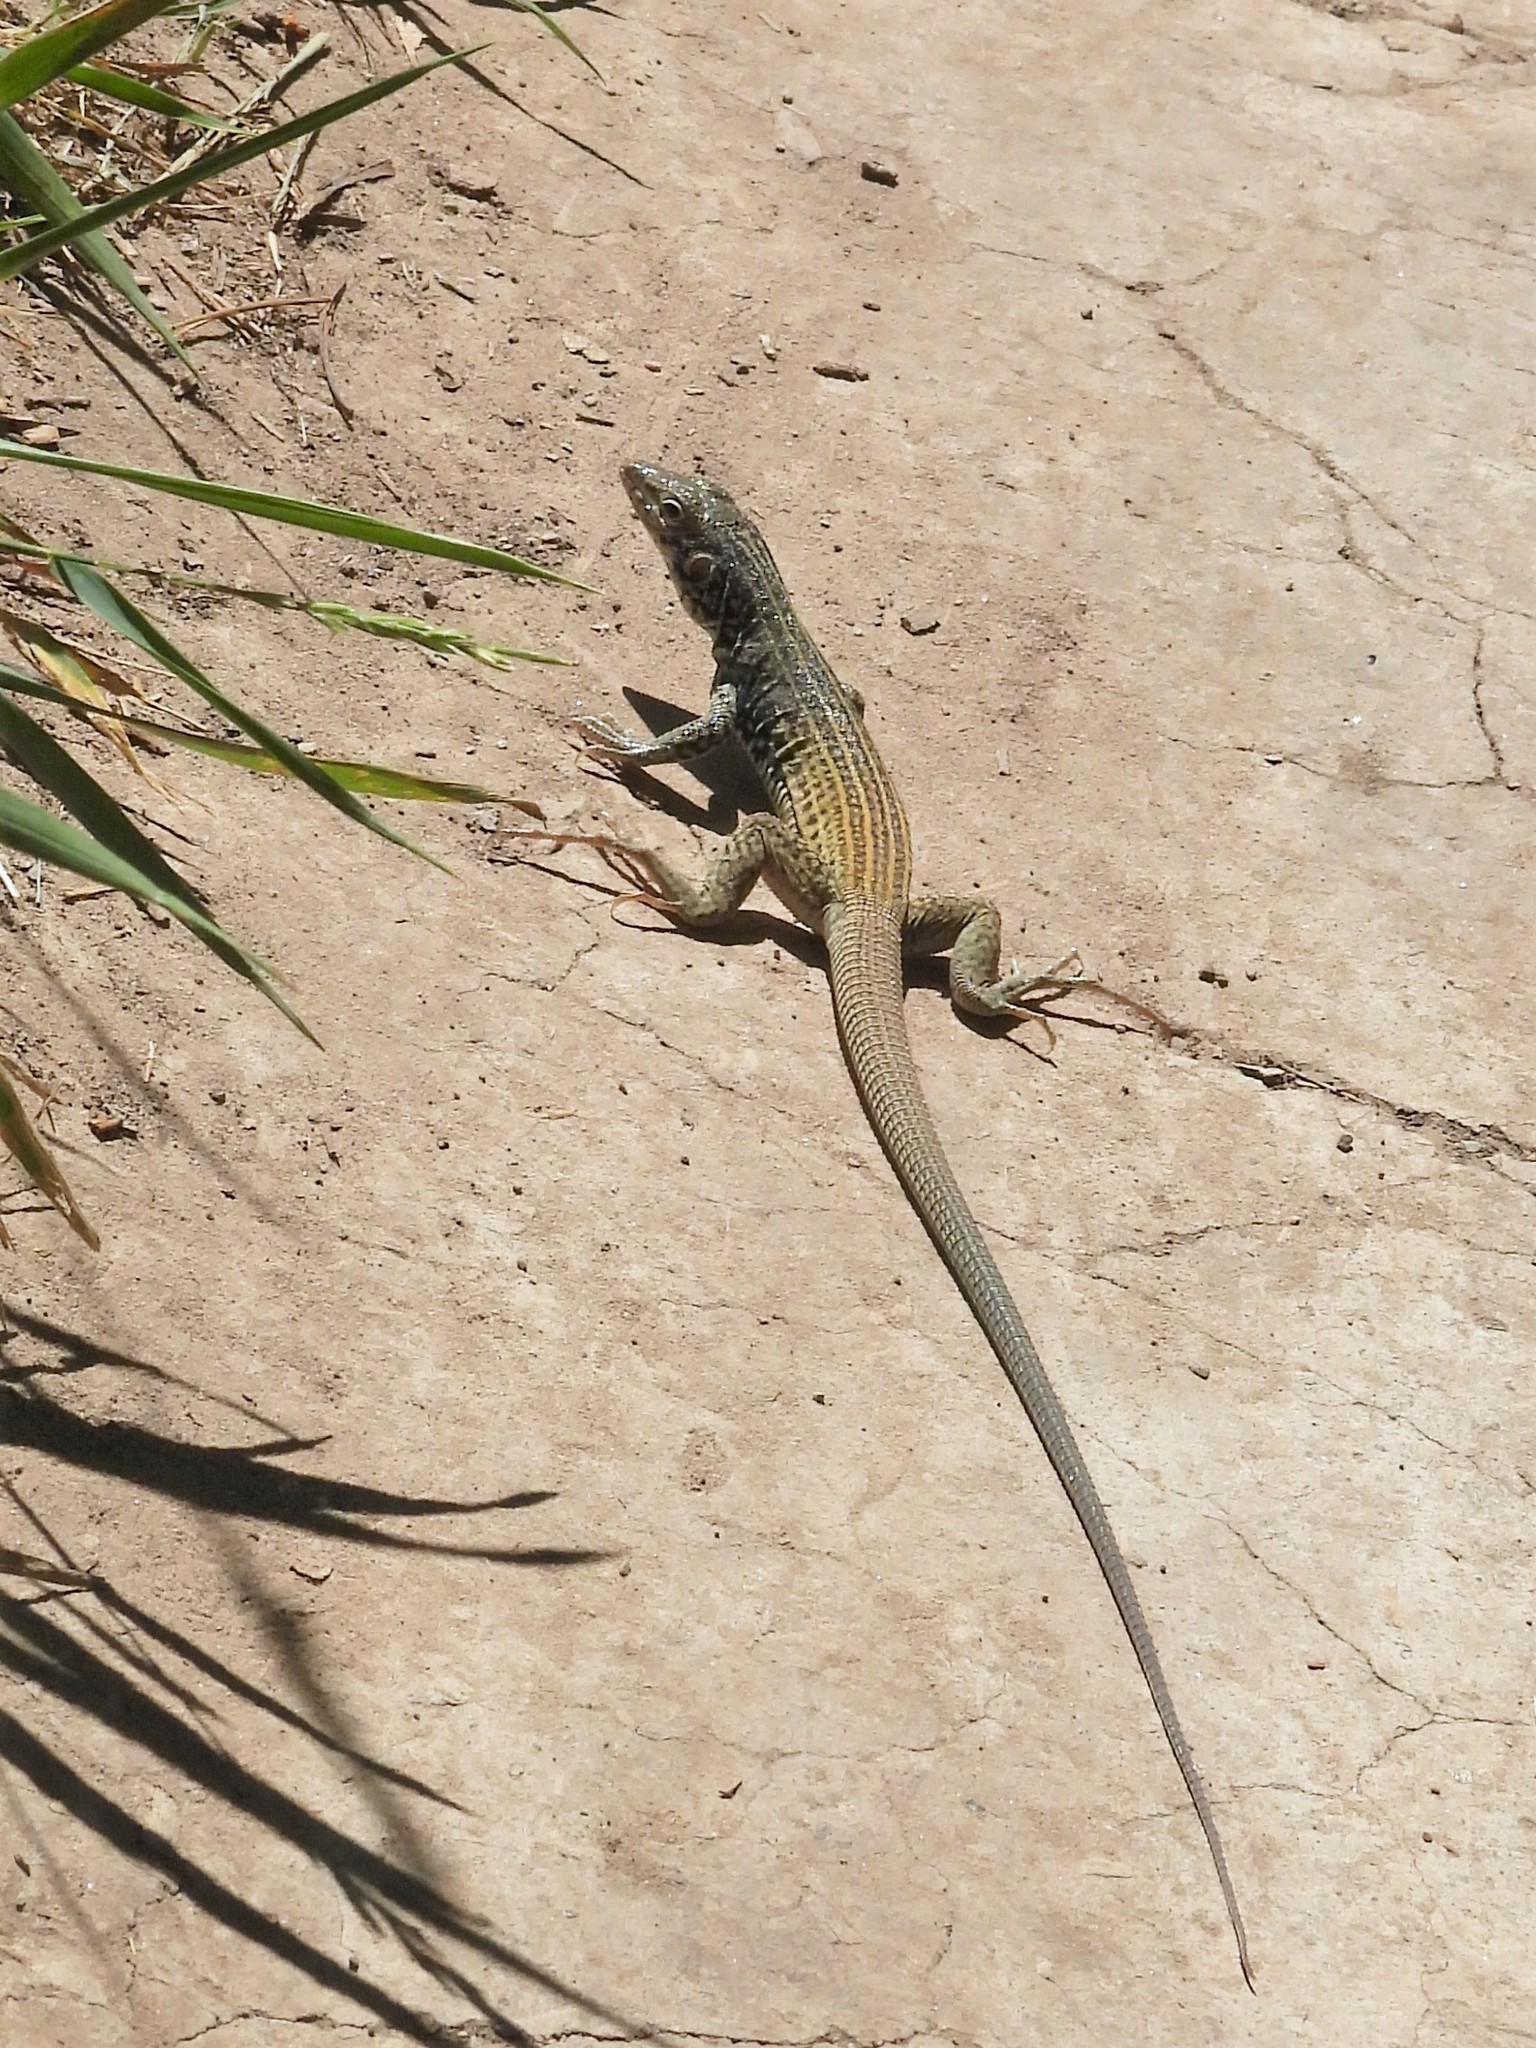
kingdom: Animalia
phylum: Chordata
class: Squamata
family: Teiidae
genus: Aspidoscelis
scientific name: Aspidoscelis tigris
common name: Tiger whiptail
